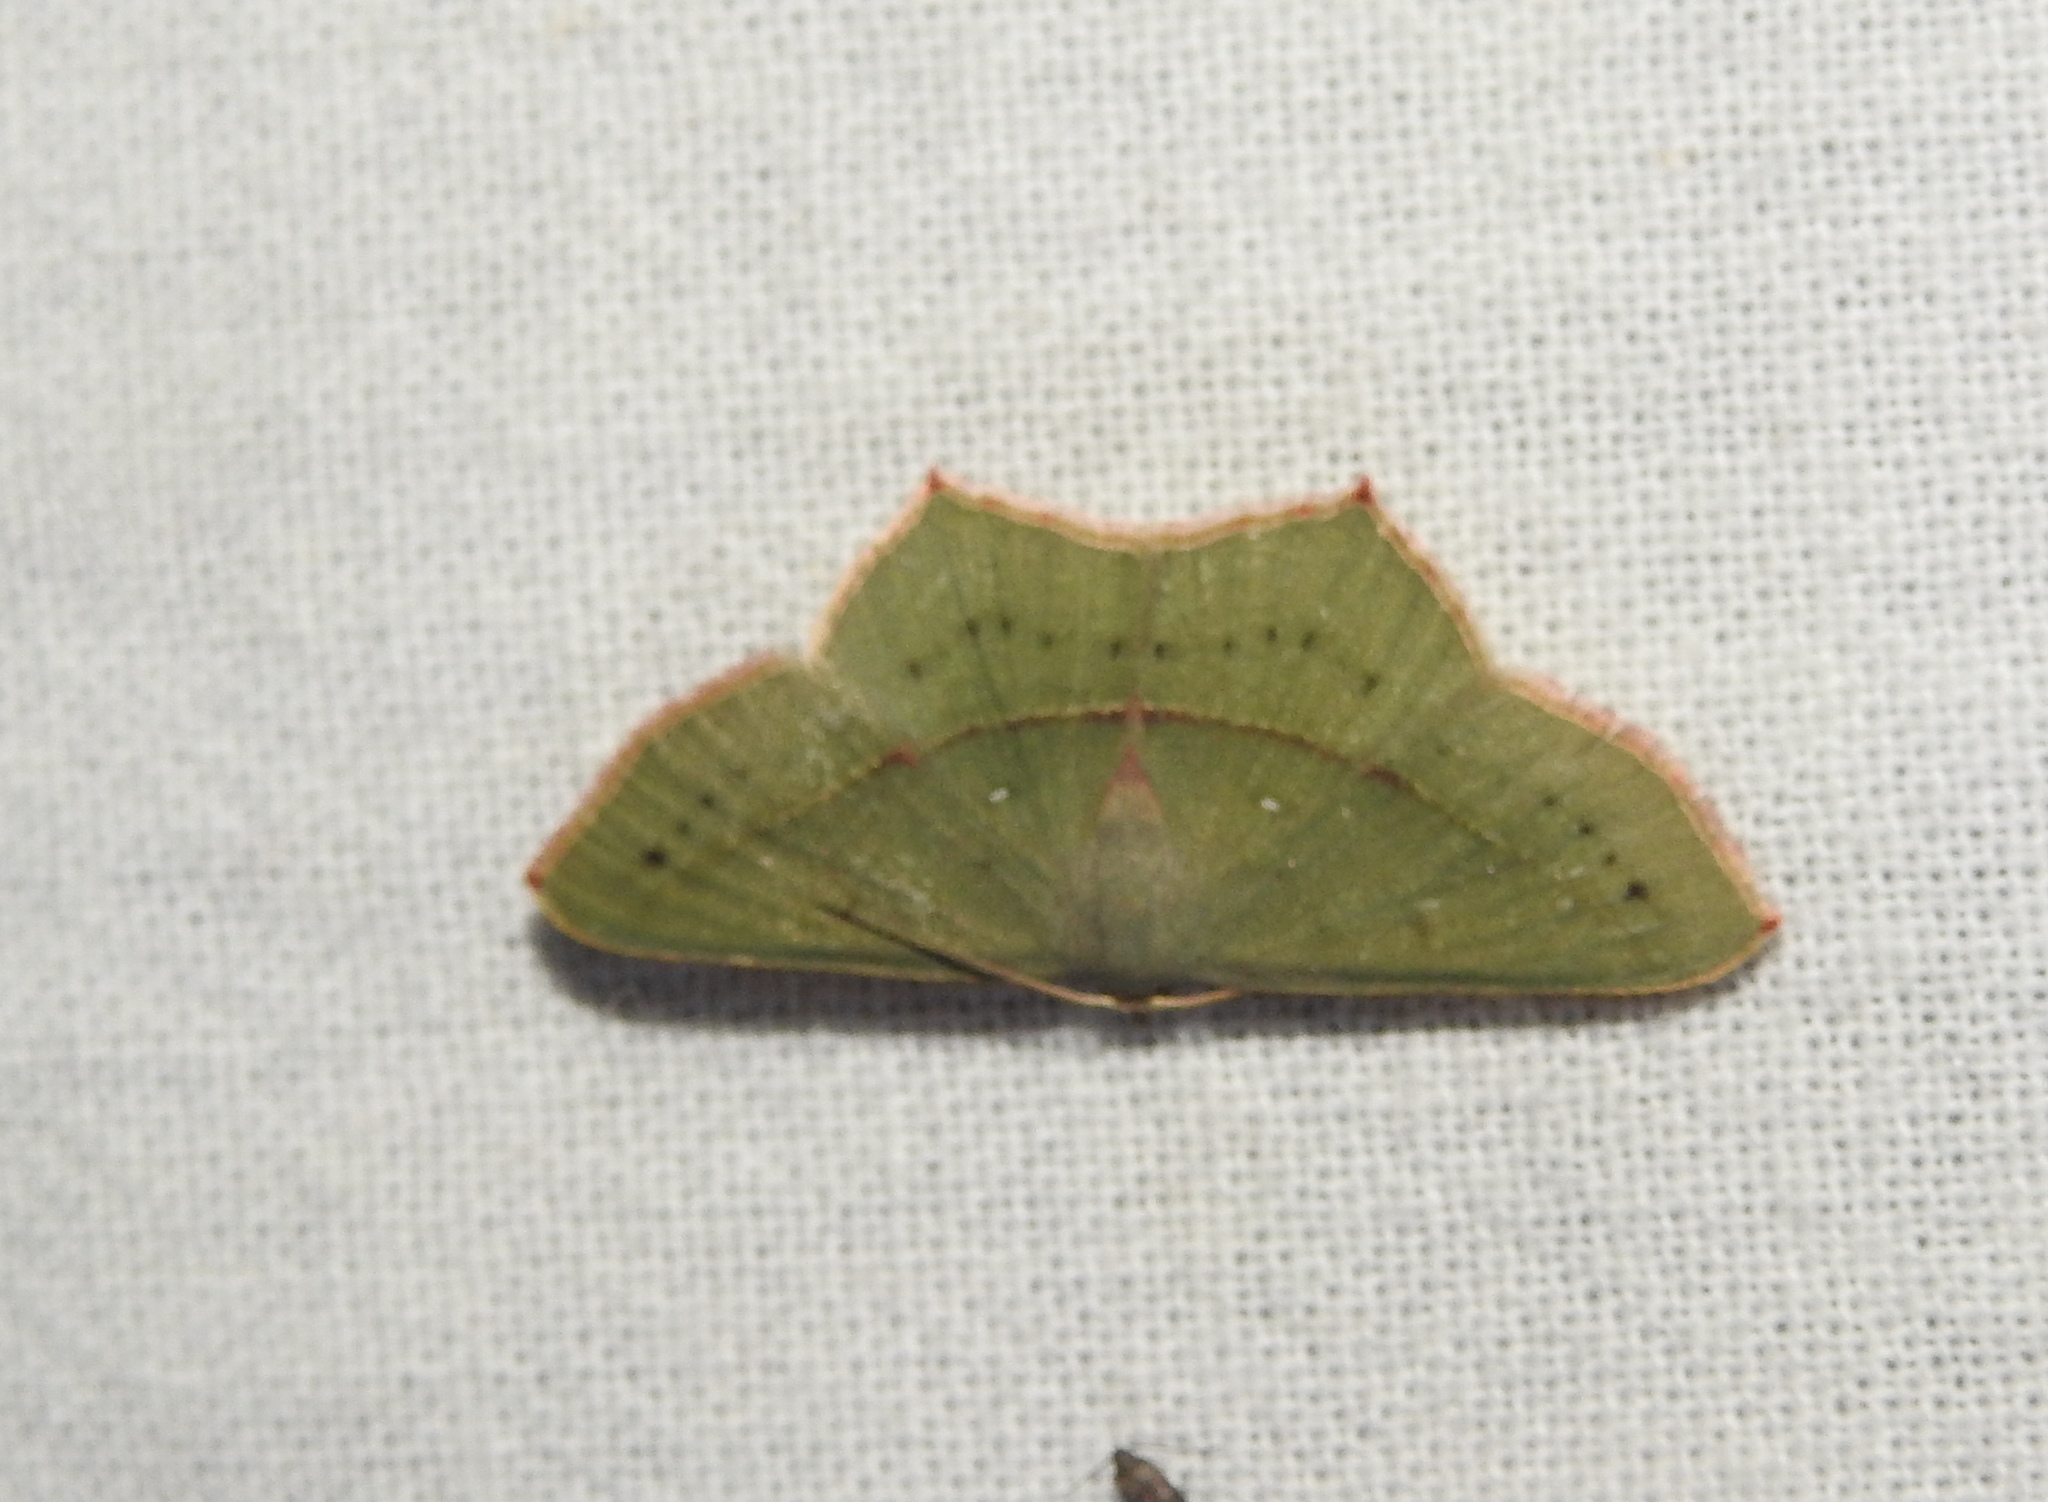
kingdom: Animalia
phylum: Arthropoda
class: Insecta
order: Lepidoptera
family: Geometridae
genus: Traminda
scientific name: Traminda mundissima
